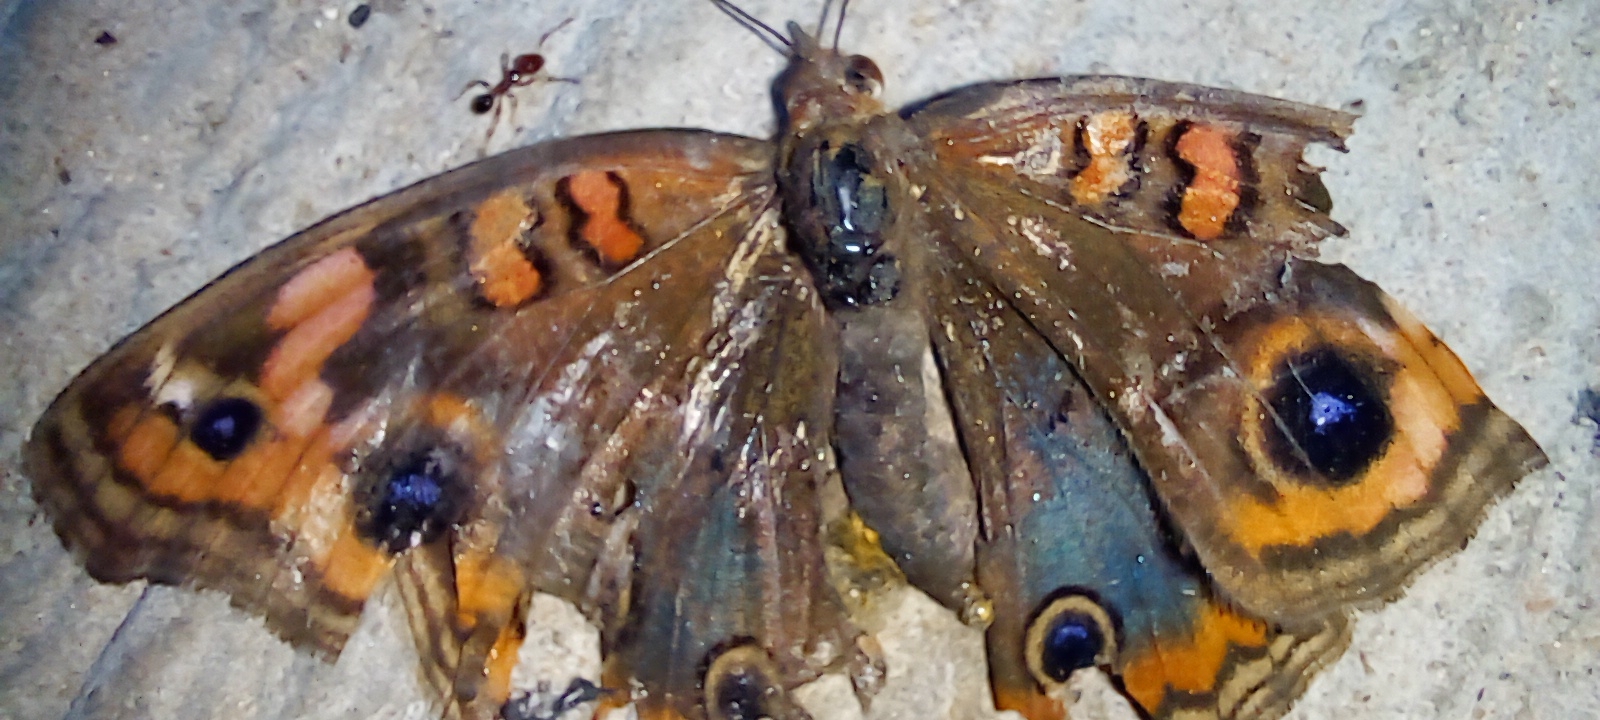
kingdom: Animalia
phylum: Arthropoda
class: Insecta
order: Lepidoptera
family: Nymphalidae
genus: Junonia
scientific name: Junonia lavinia
